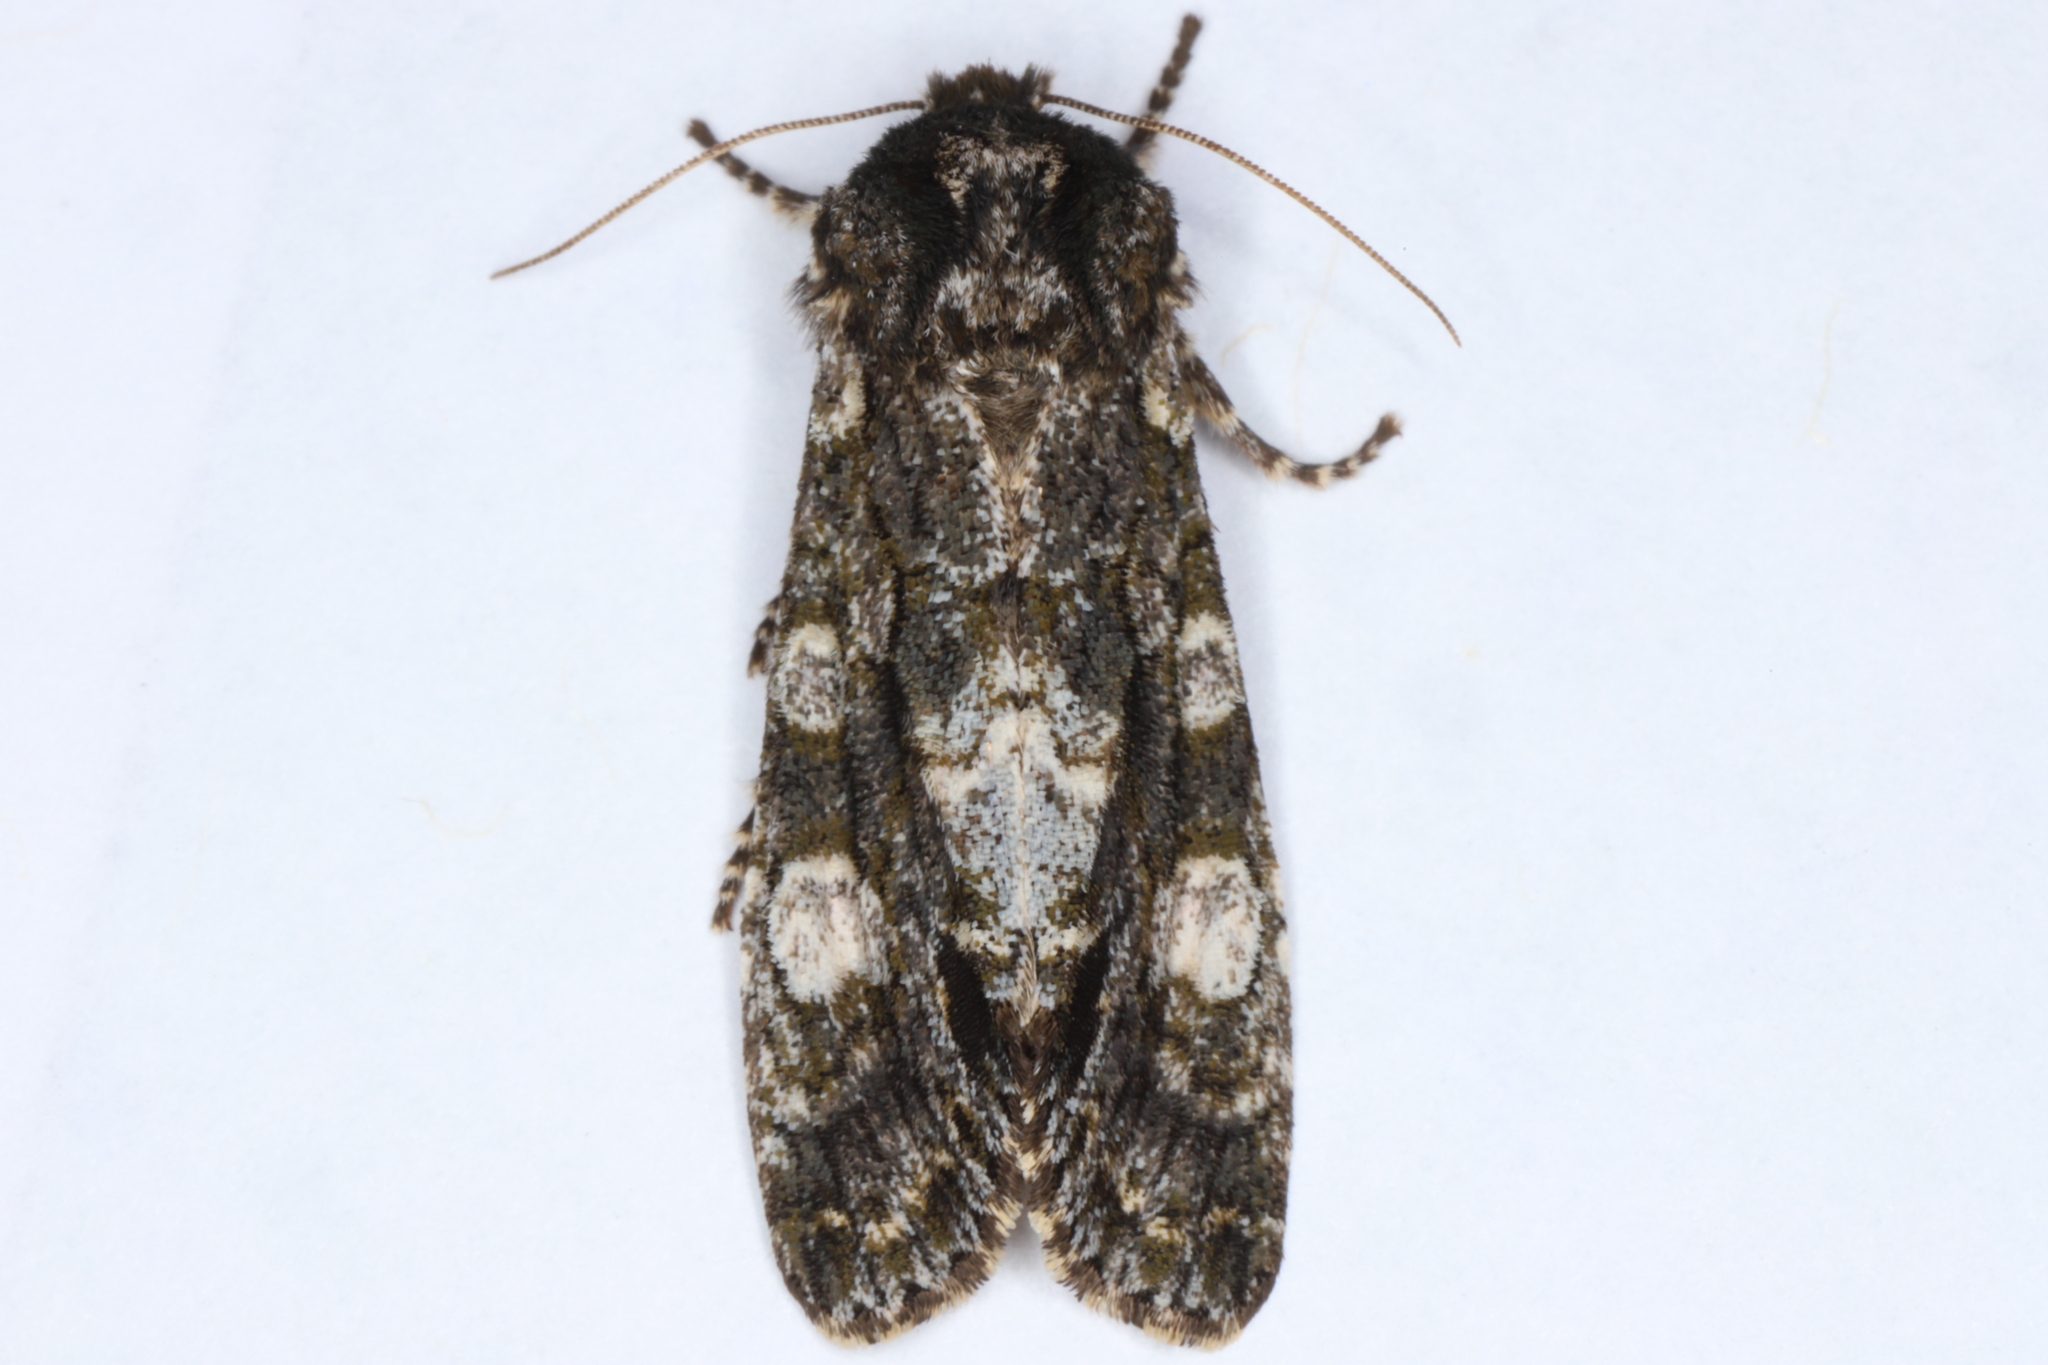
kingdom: Animalia
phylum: Arthropoda
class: Insecta
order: Lepidoptera
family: Noctuidae
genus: Psaphida
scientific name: Psaphida grotei
